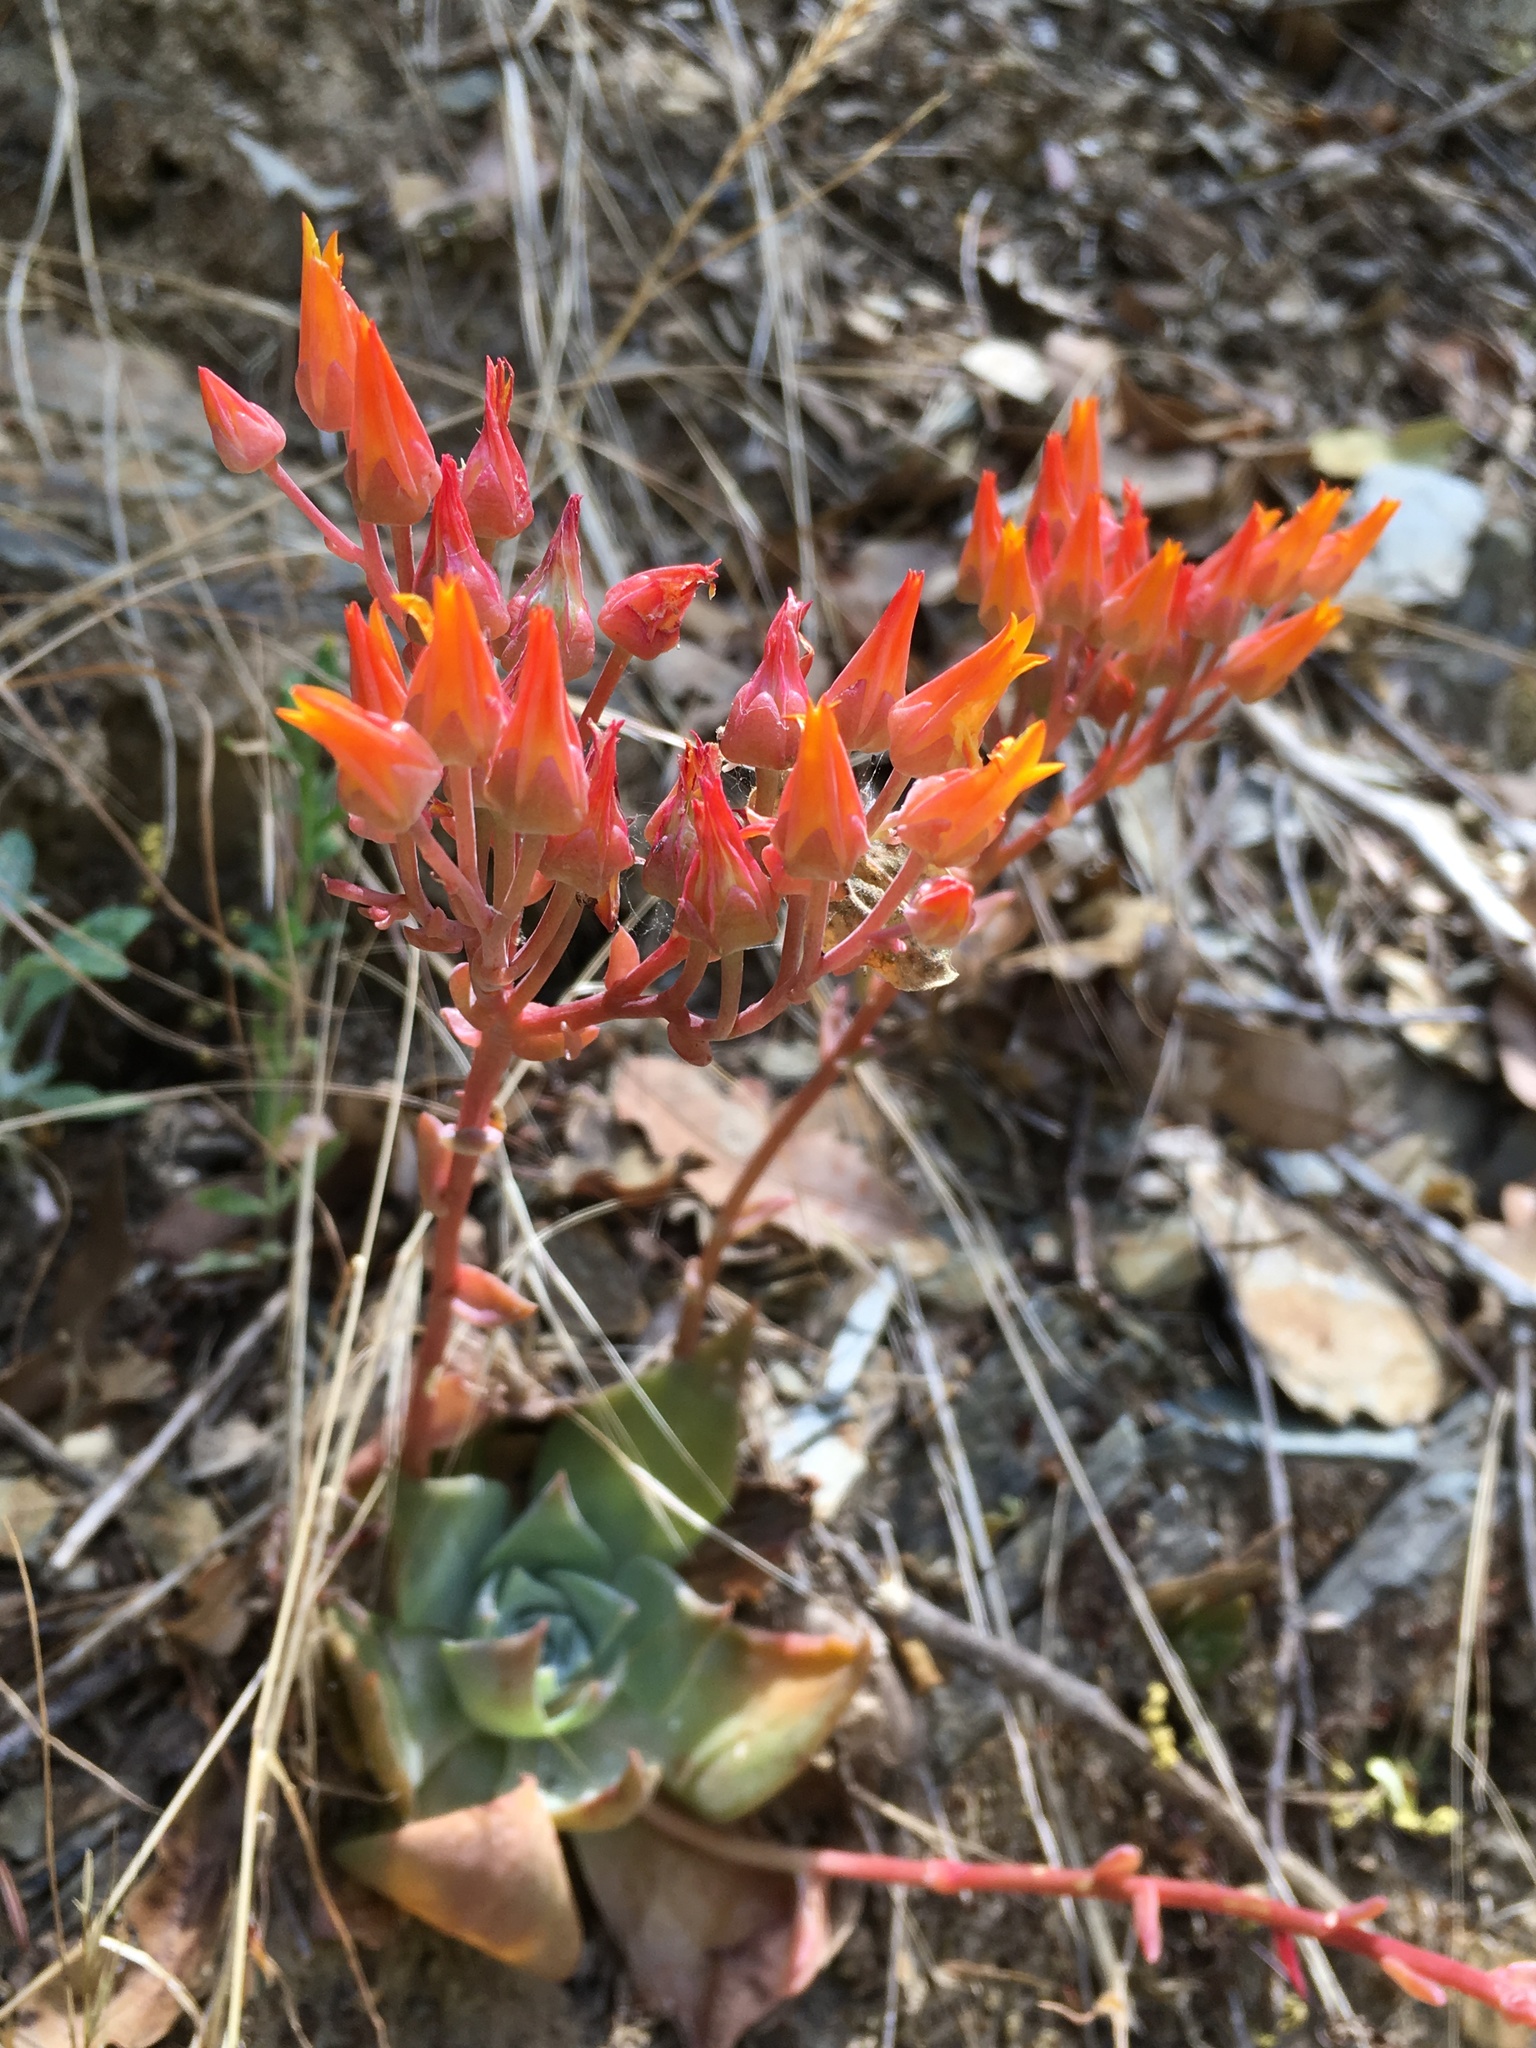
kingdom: Plantae
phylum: Tracheophyta
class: Magnoliopsida
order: Saxifragales
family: Crassulaceae
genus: Dudleya
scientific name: Dudleya cymosa
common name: Canyon dudleya
